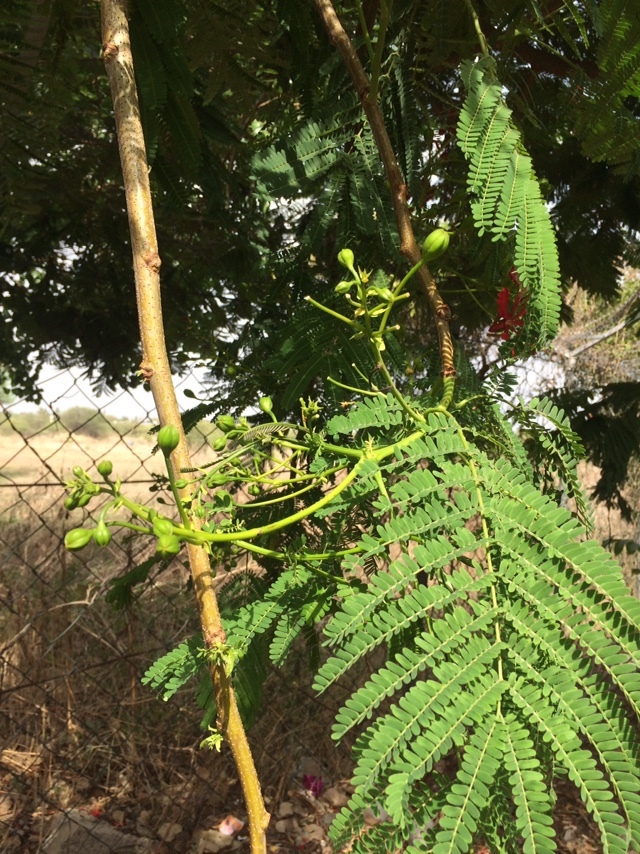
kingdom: Plantae
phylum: Tracheophyta
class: Magnoliopsida
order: Fabales
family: Fabaceae
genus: Delonix
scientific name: Delonix regia
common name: Royal poinciana
